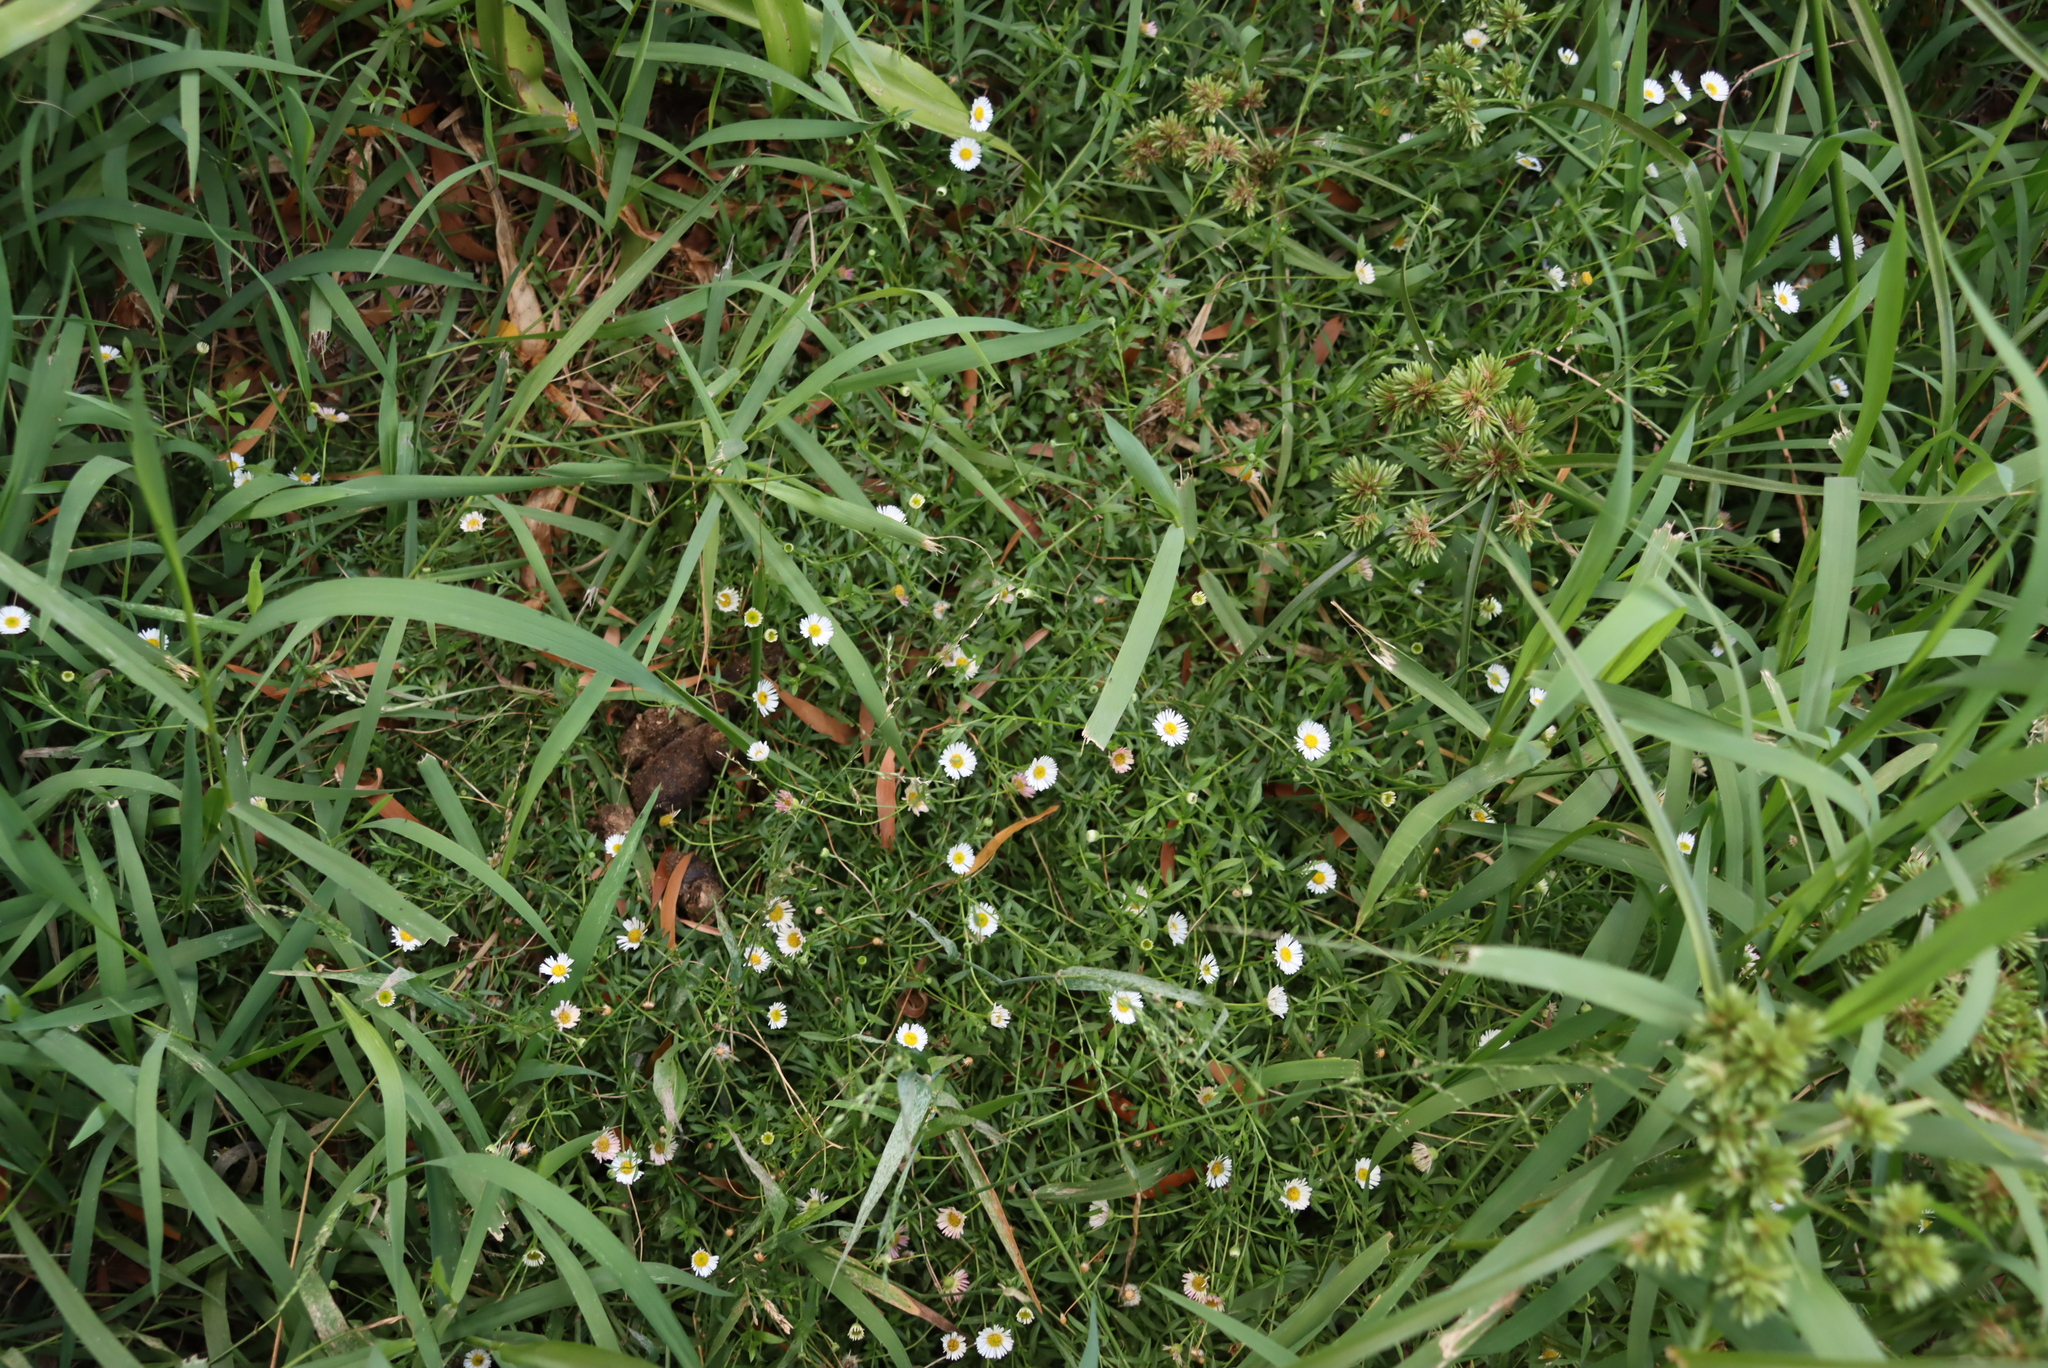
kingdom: Plantae
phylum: Tracheophyta
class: Magnoliopsida
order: Asterales
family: Asteraceae
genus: Erigeron
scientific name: Erigeron karvinskianus
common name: Mexican fleabane
